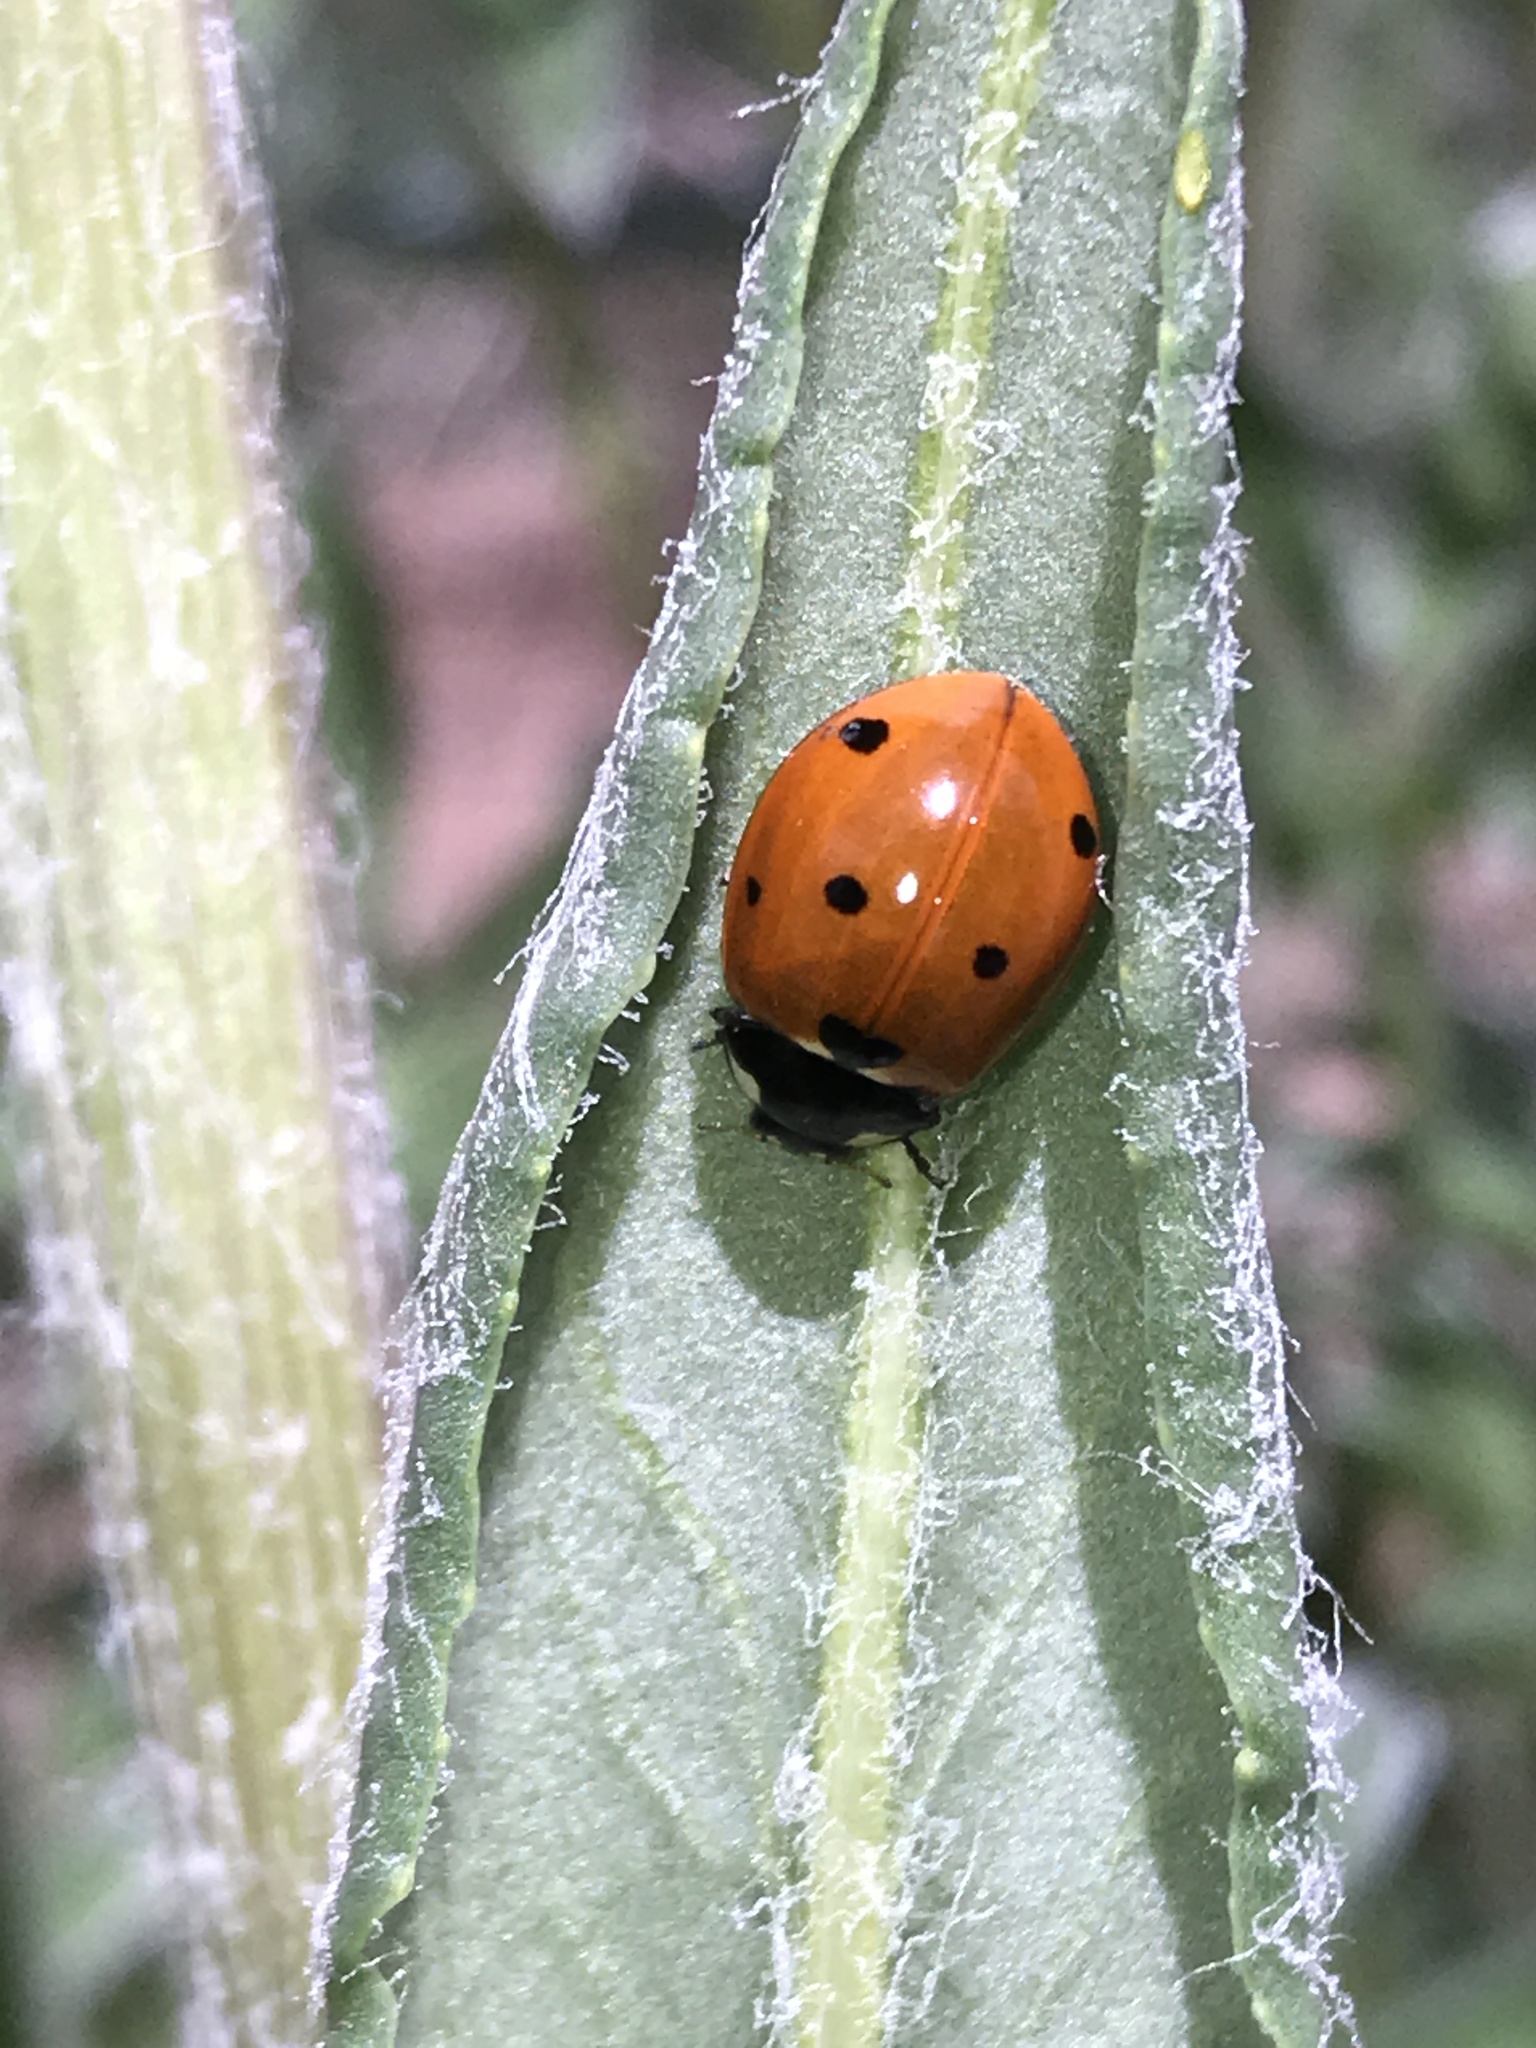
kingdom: Animalia
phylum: Arthropoda
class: Insecta
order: Coleoptera
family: Coccinellidae
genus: Coccinella
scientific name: Coccinella septempunctata
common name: Sevenspotted lady beetle
